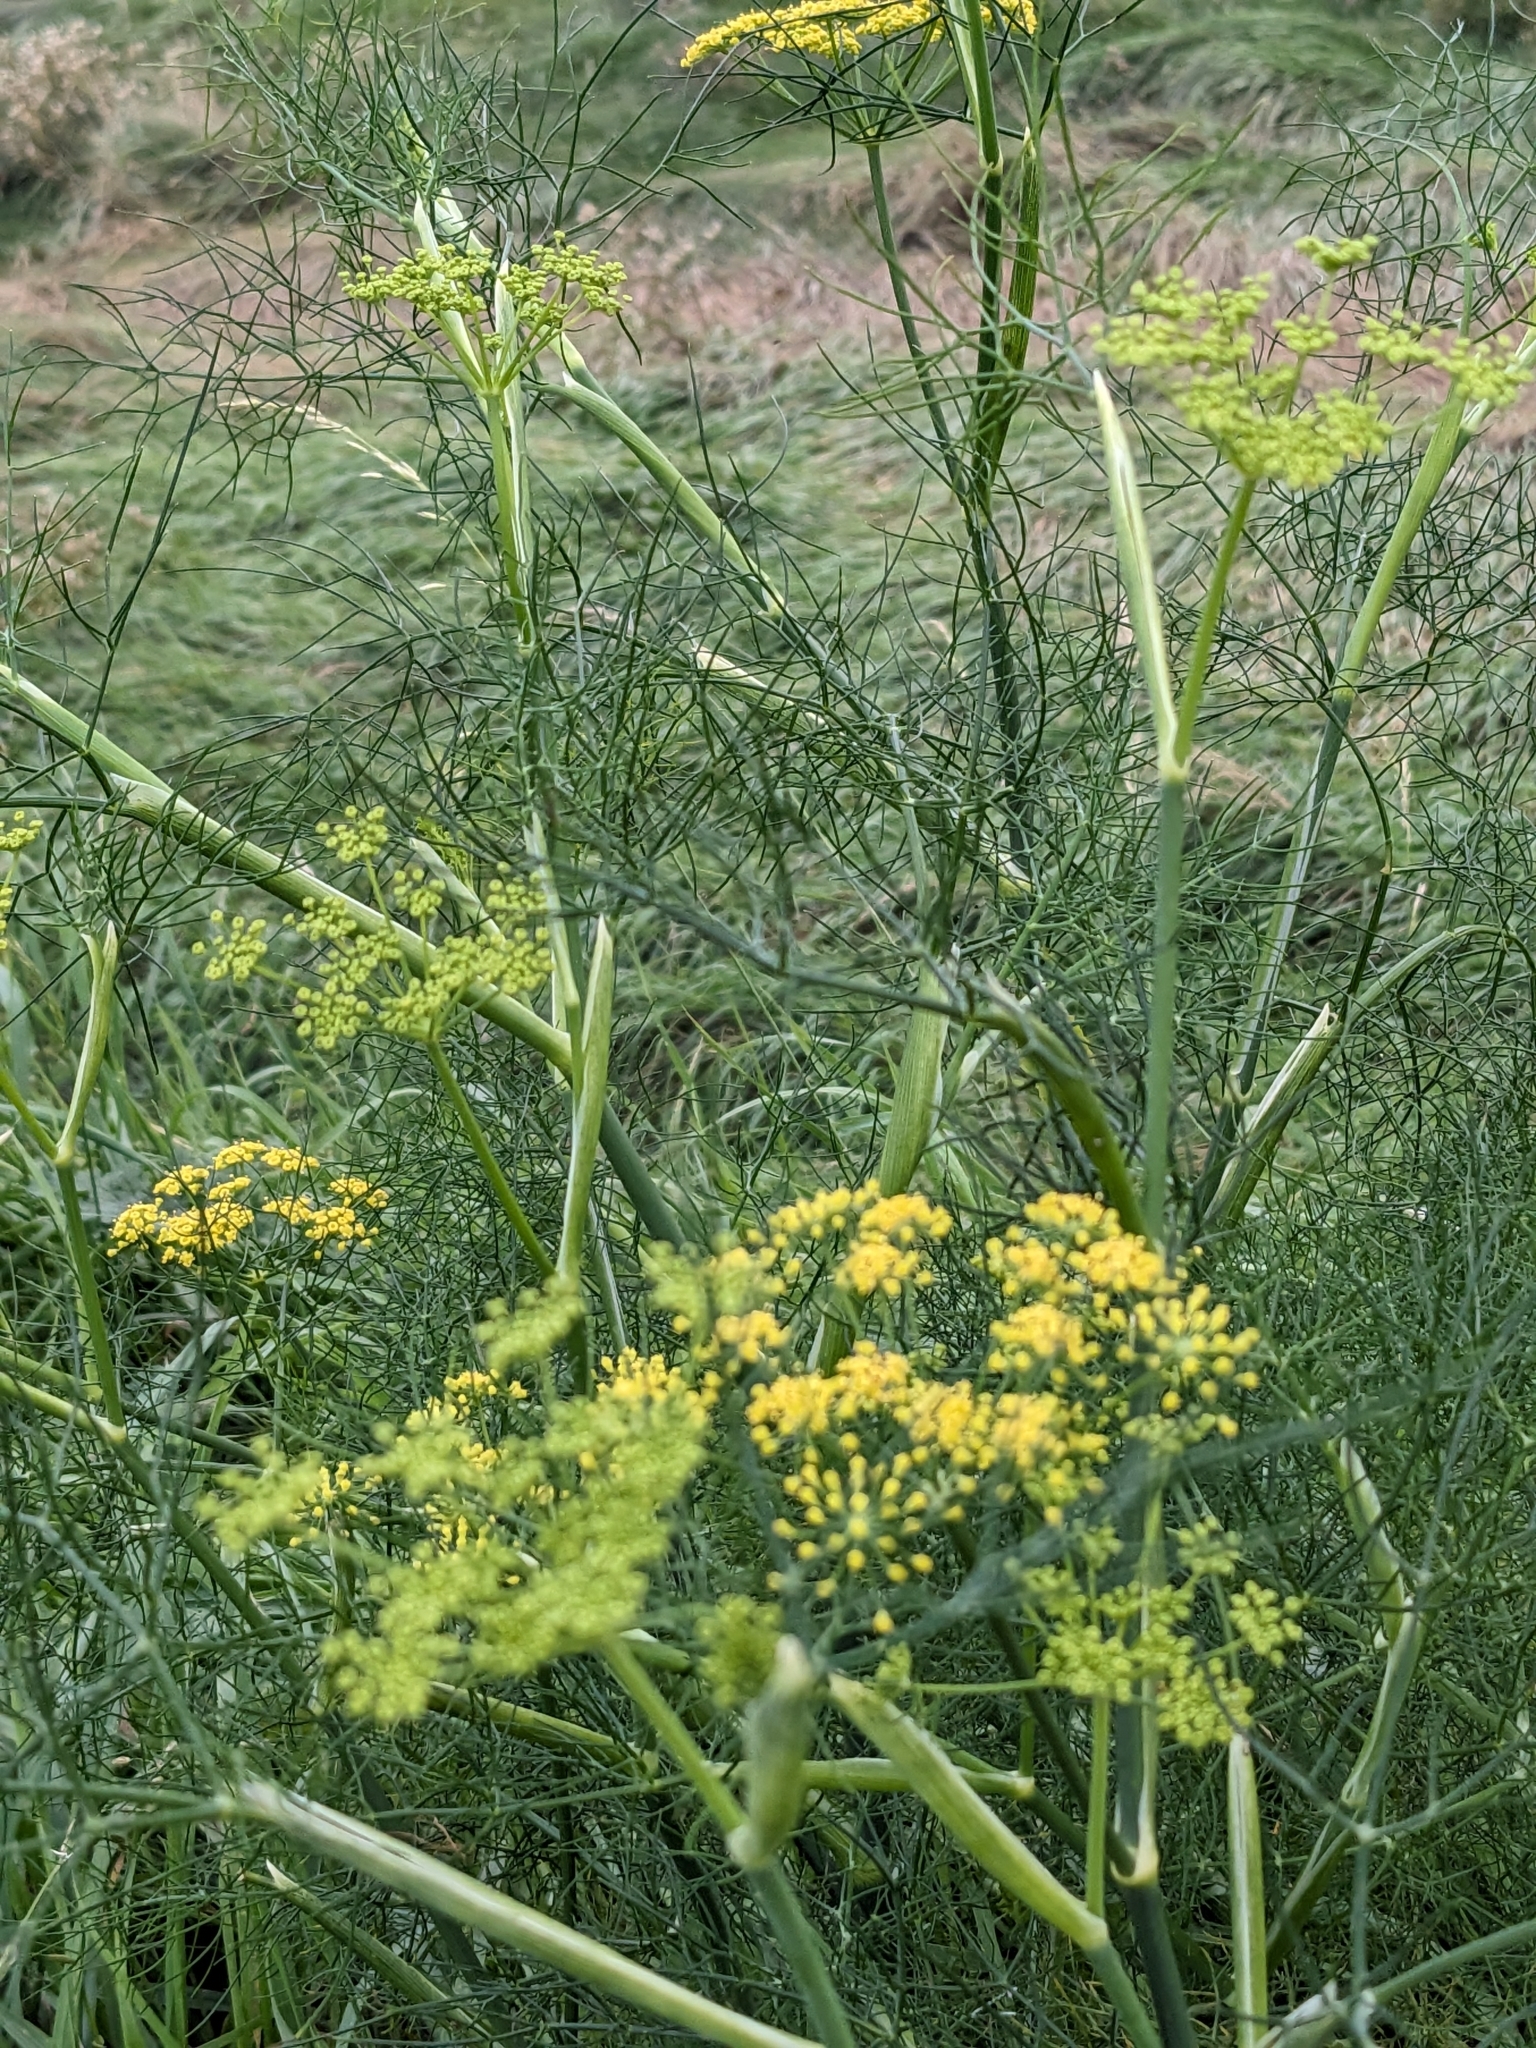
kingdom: Plantae
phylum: Tracheophyta
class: Magnoliopsida
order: Apiales
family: Apiaceae
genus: Foeniculum
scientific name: Foeniculum vulgare
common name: Fennel
